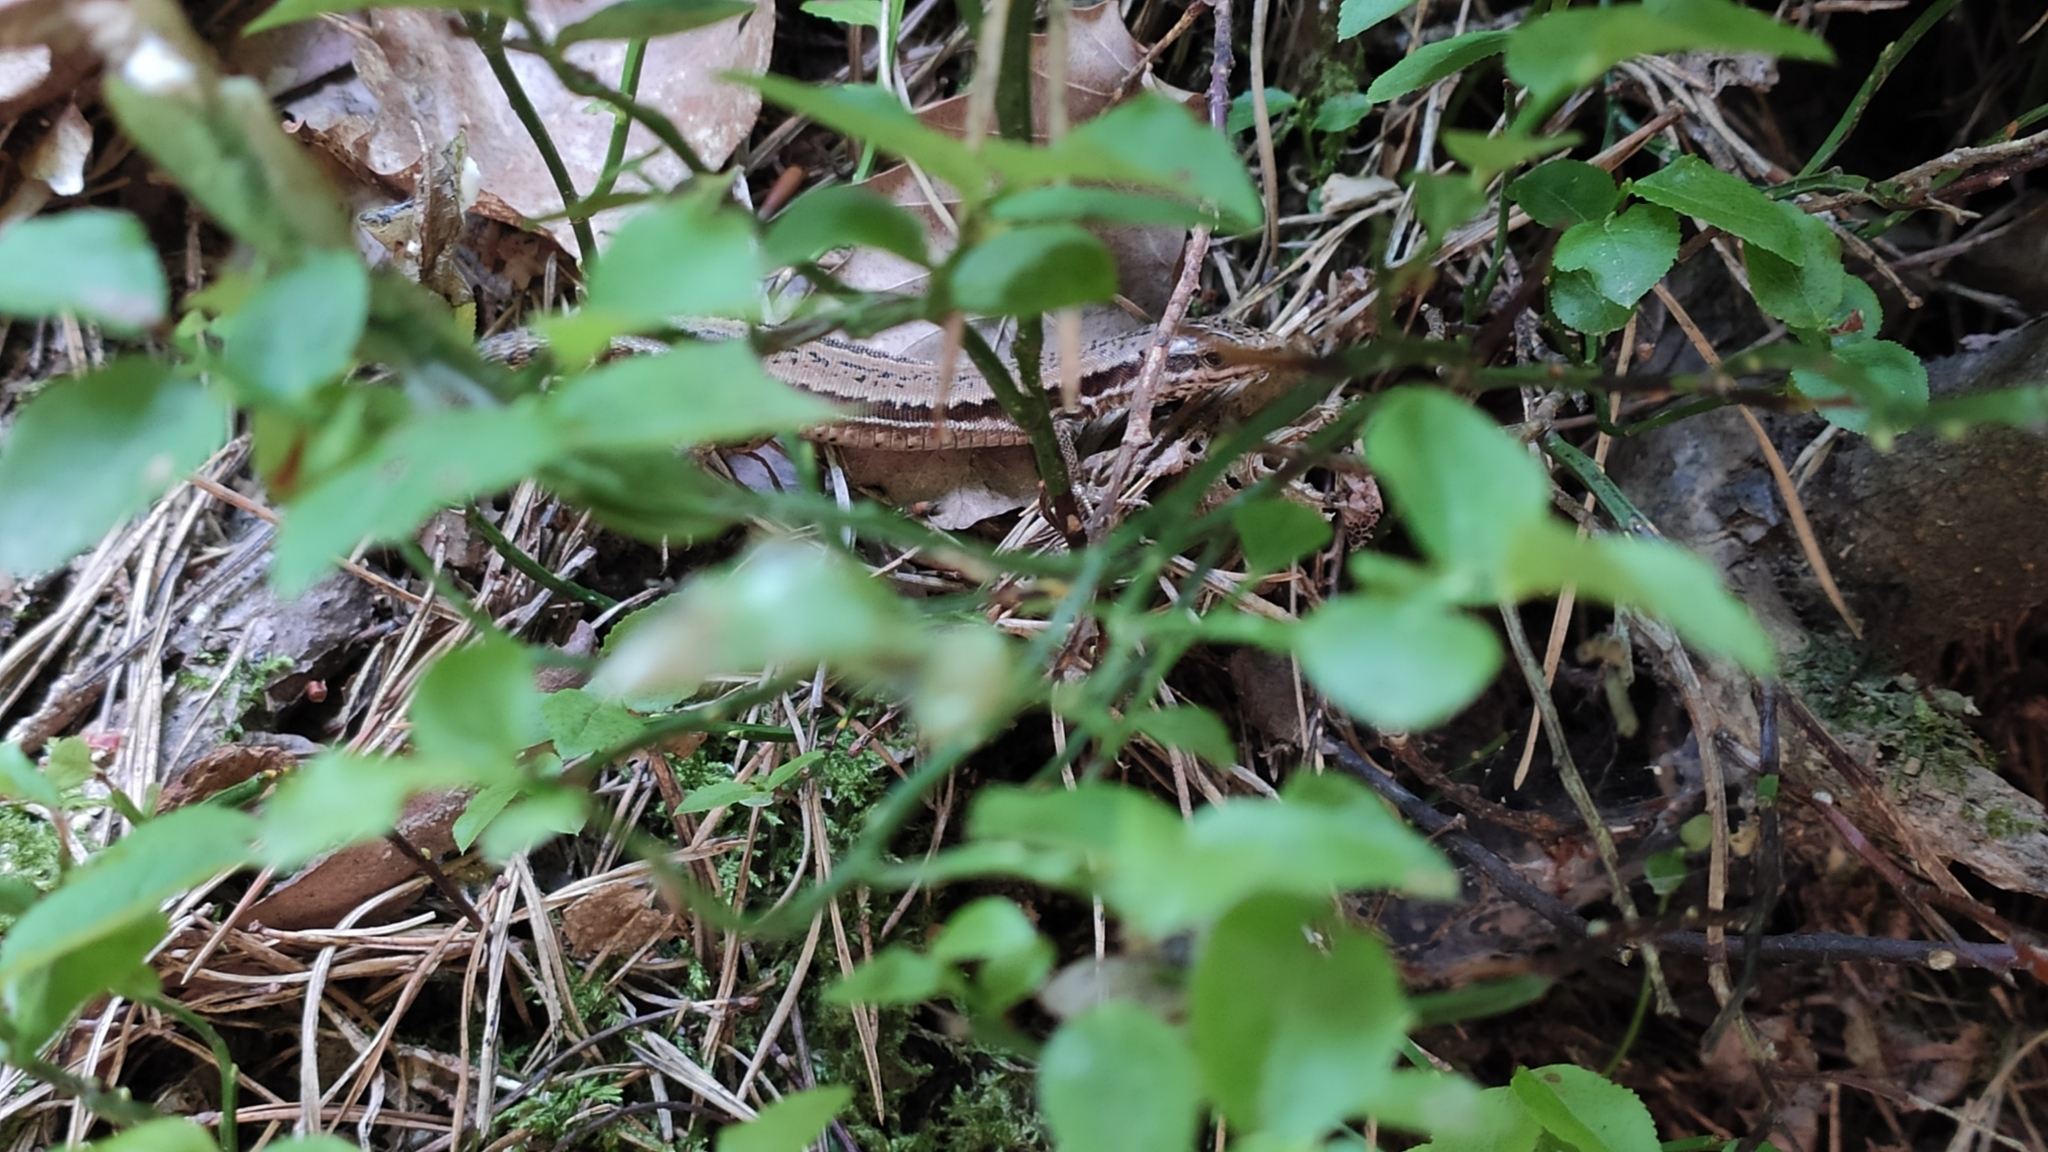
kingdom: Animalia
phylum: Chordata
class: Squamata
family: Lacertidae
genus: Podarcis
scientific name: Podarcis muralis
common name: Common wall lizard
